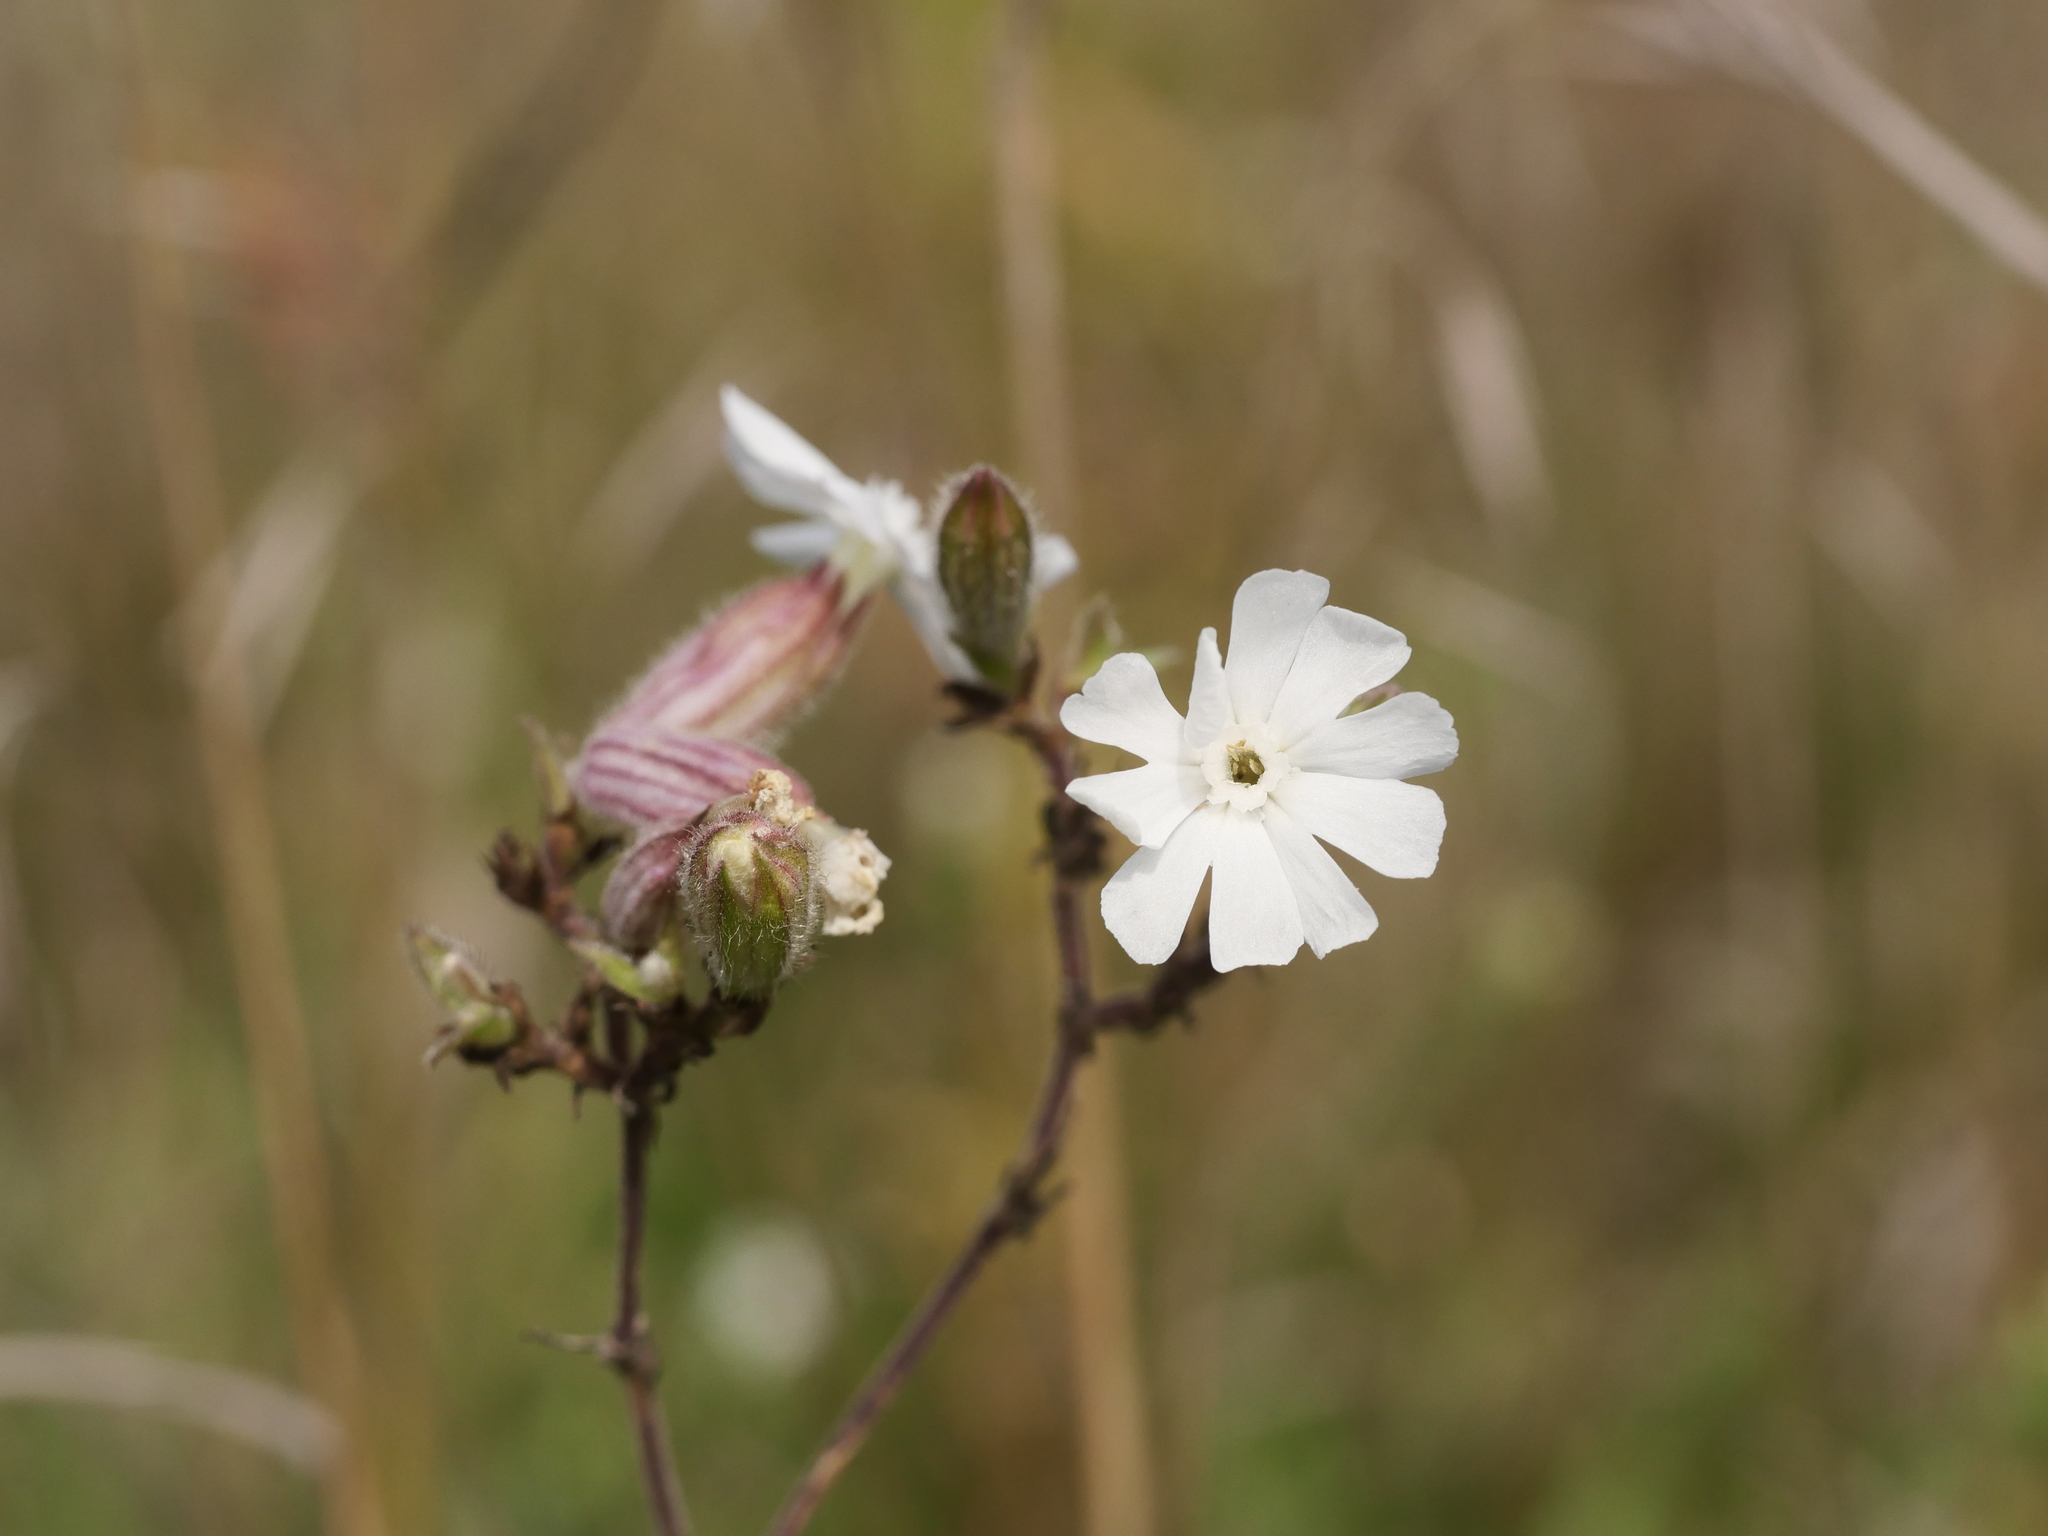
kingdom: Plantae
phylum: Tracheophyta
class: Magnoliopsida
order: Caryophyllales
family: Caryophyllaceae
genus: Silene
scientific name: Silene latifolia
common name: White campion
